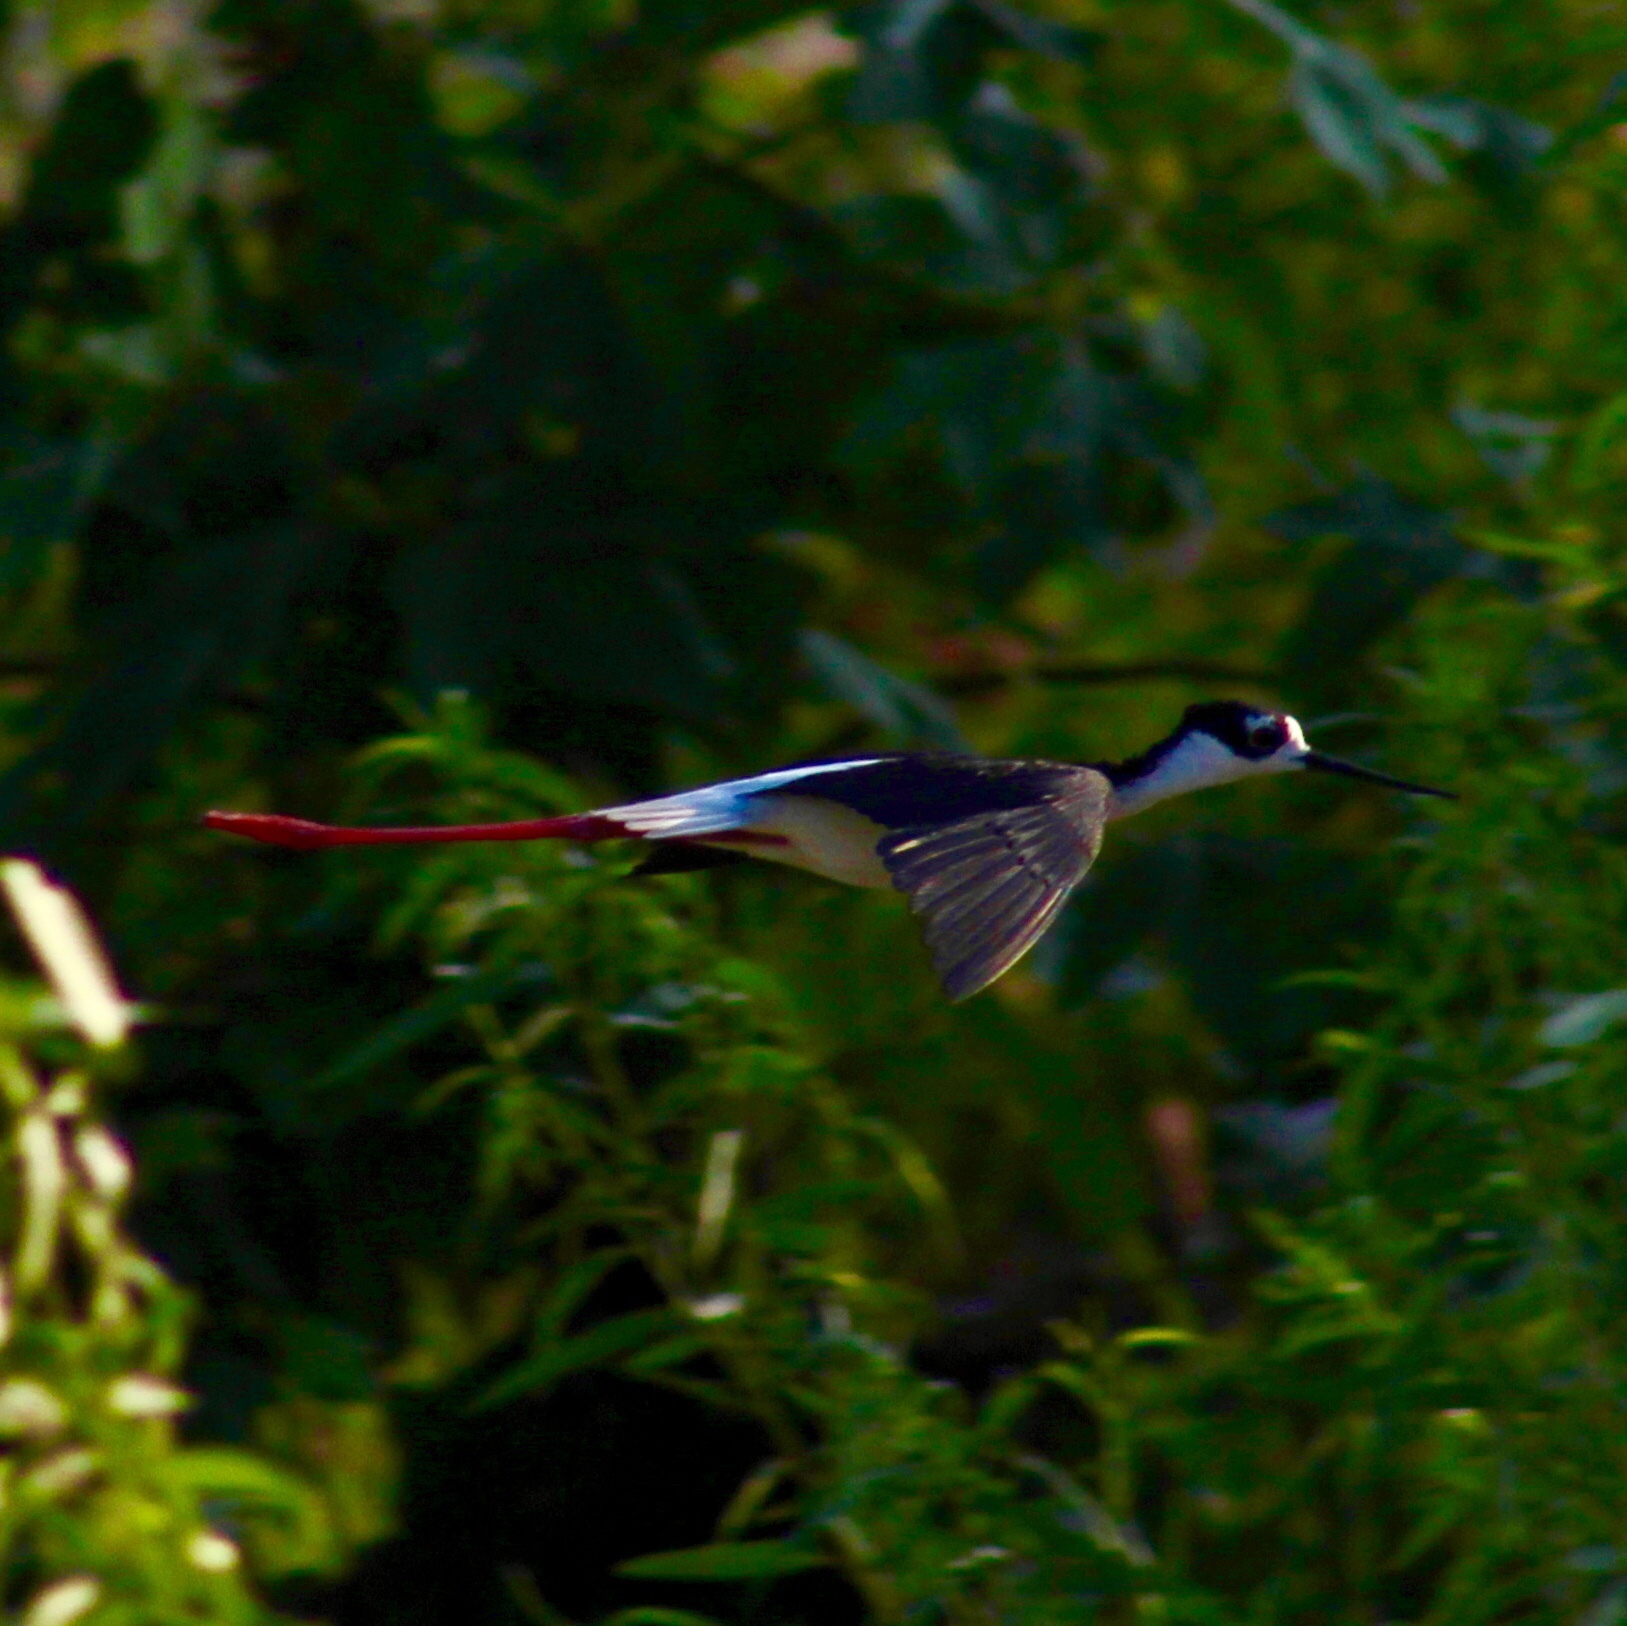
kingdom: Animalia
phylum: Chordata
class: Aves
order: Charadriiformes
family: Recurvirostridae
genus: Himantopus
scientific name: Himantopus mexicanus
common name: Black-necked stilt
